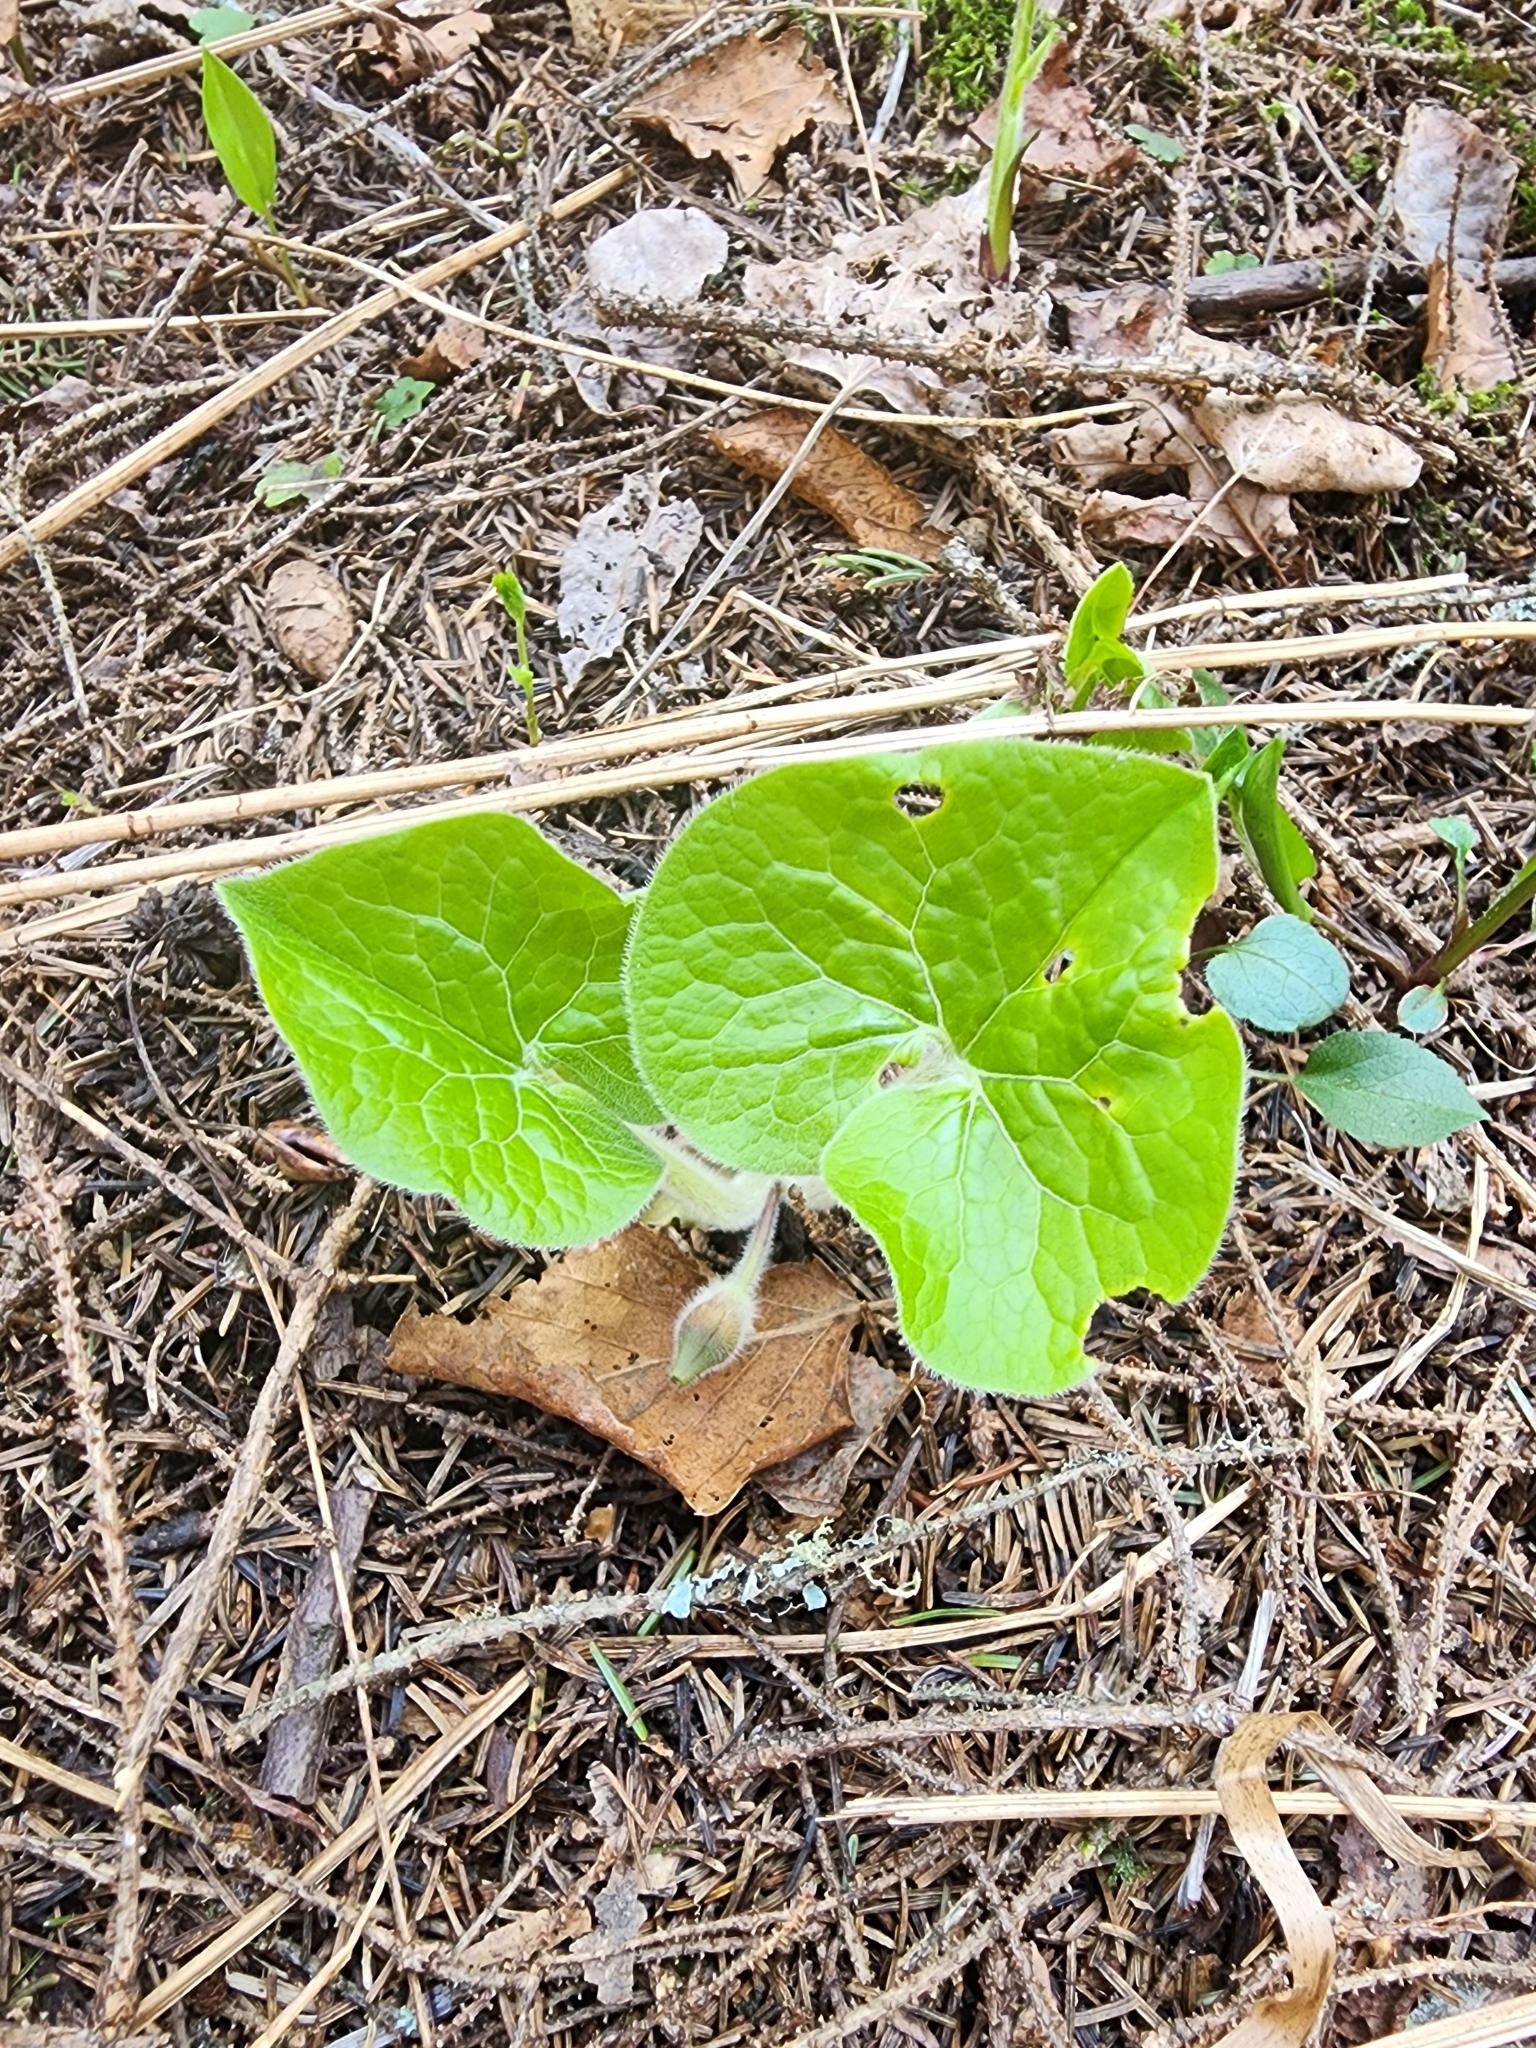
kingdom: Plantae
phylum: Tracheophyta
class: Magnoliopsida
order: Piperales
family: Aristolochiaceae
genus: Asarum
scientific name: Asarum canadense
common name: Wild ginger
